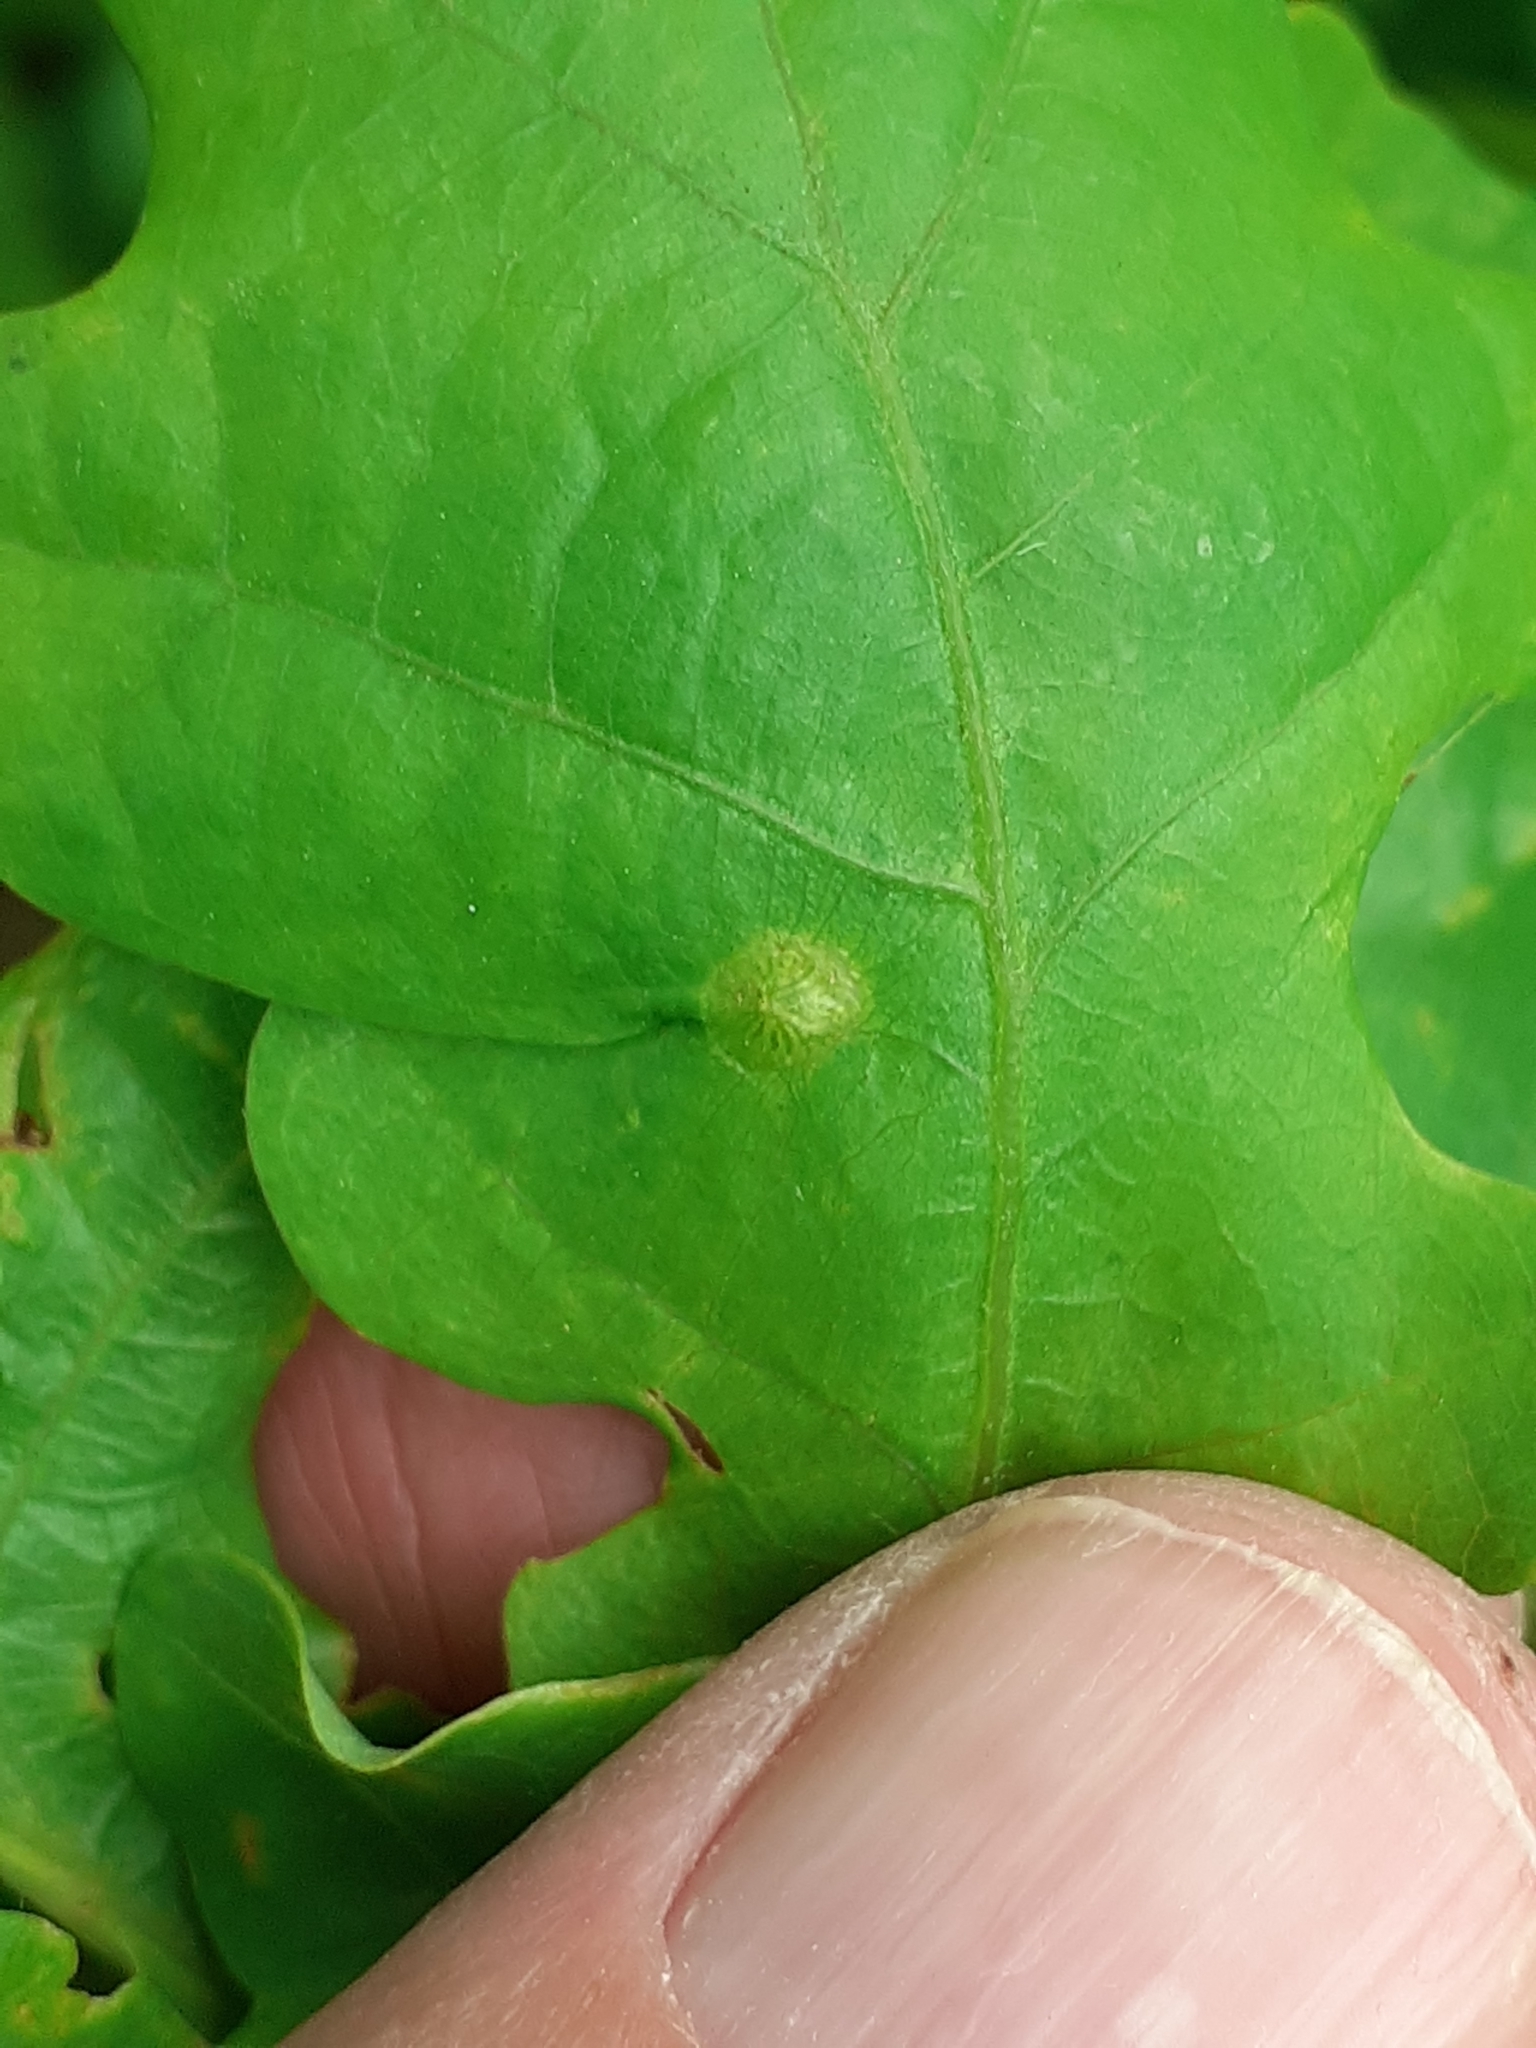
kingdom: Animalia
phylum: Arthropoda
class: Insecta
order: Hymenoptera
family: Cynipidae
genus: Neuroterus
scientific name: Neuroterus numismalis
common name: Silk-button spangle gall
